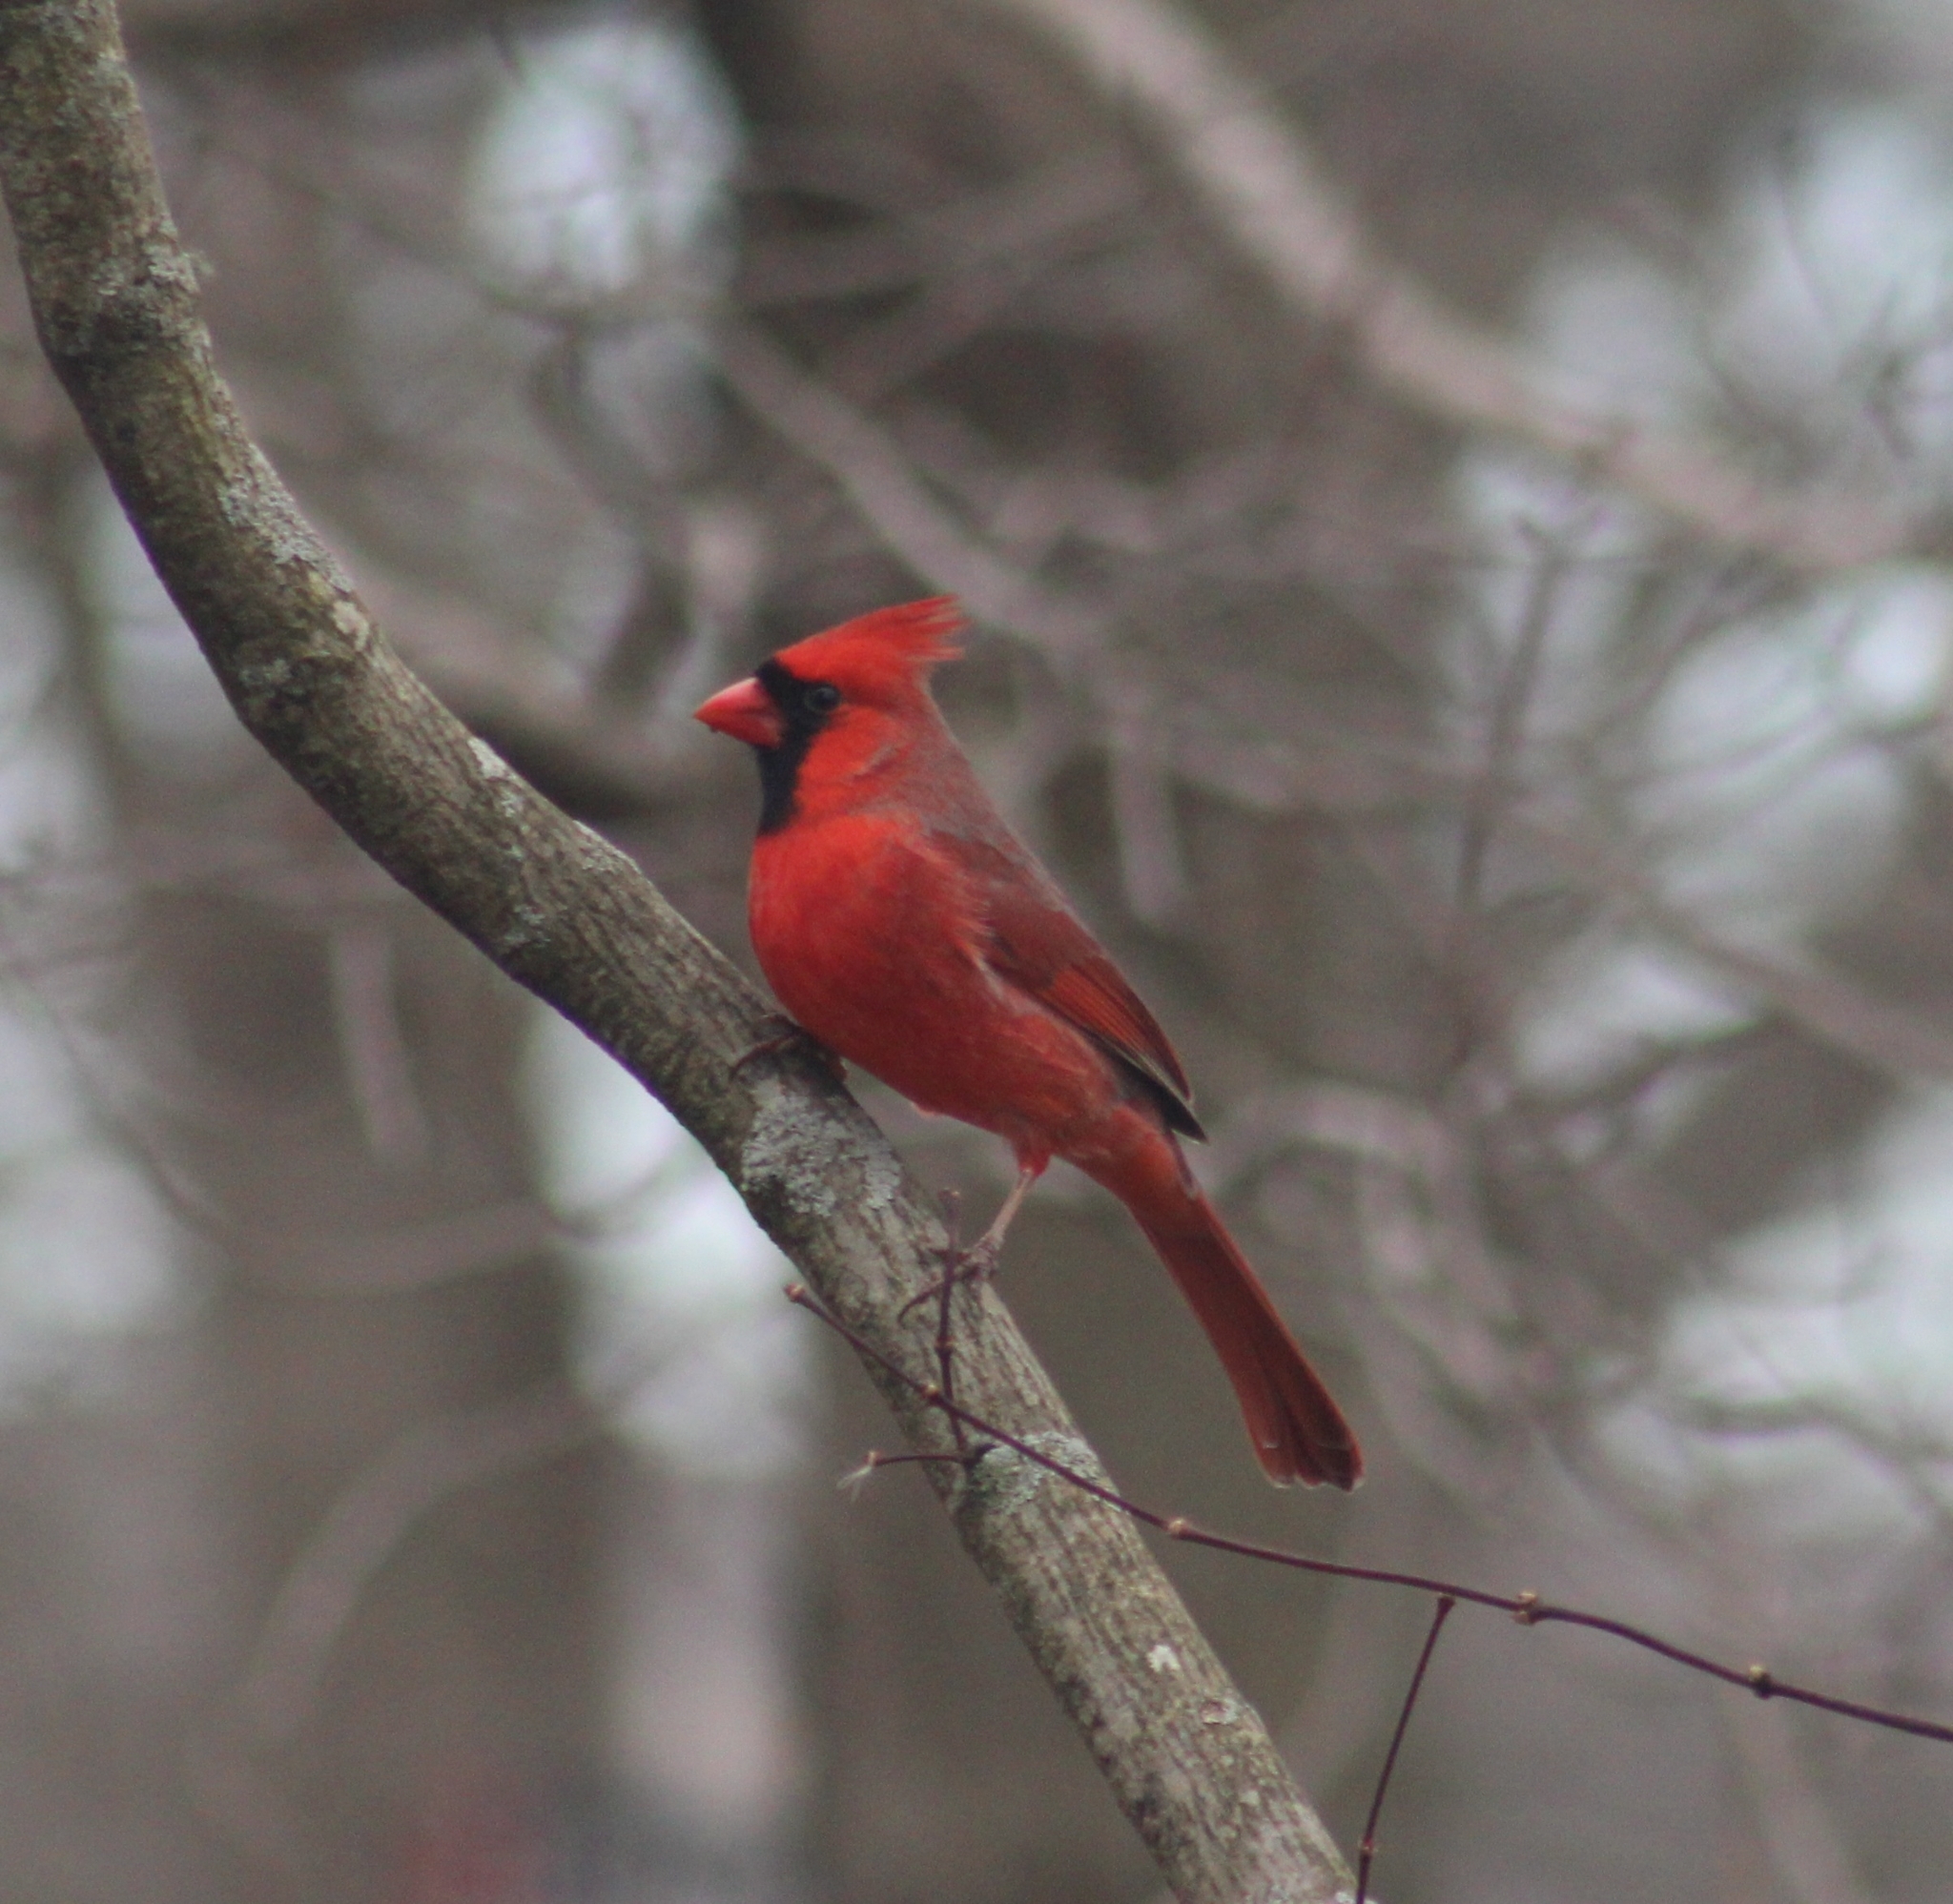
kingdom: Animalia
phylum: Chordata
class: Aves
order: Passeriformes
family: Cardinalidae
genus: Cardinalis
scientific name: Cardinalis cardinalis
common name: Northern cardinal
